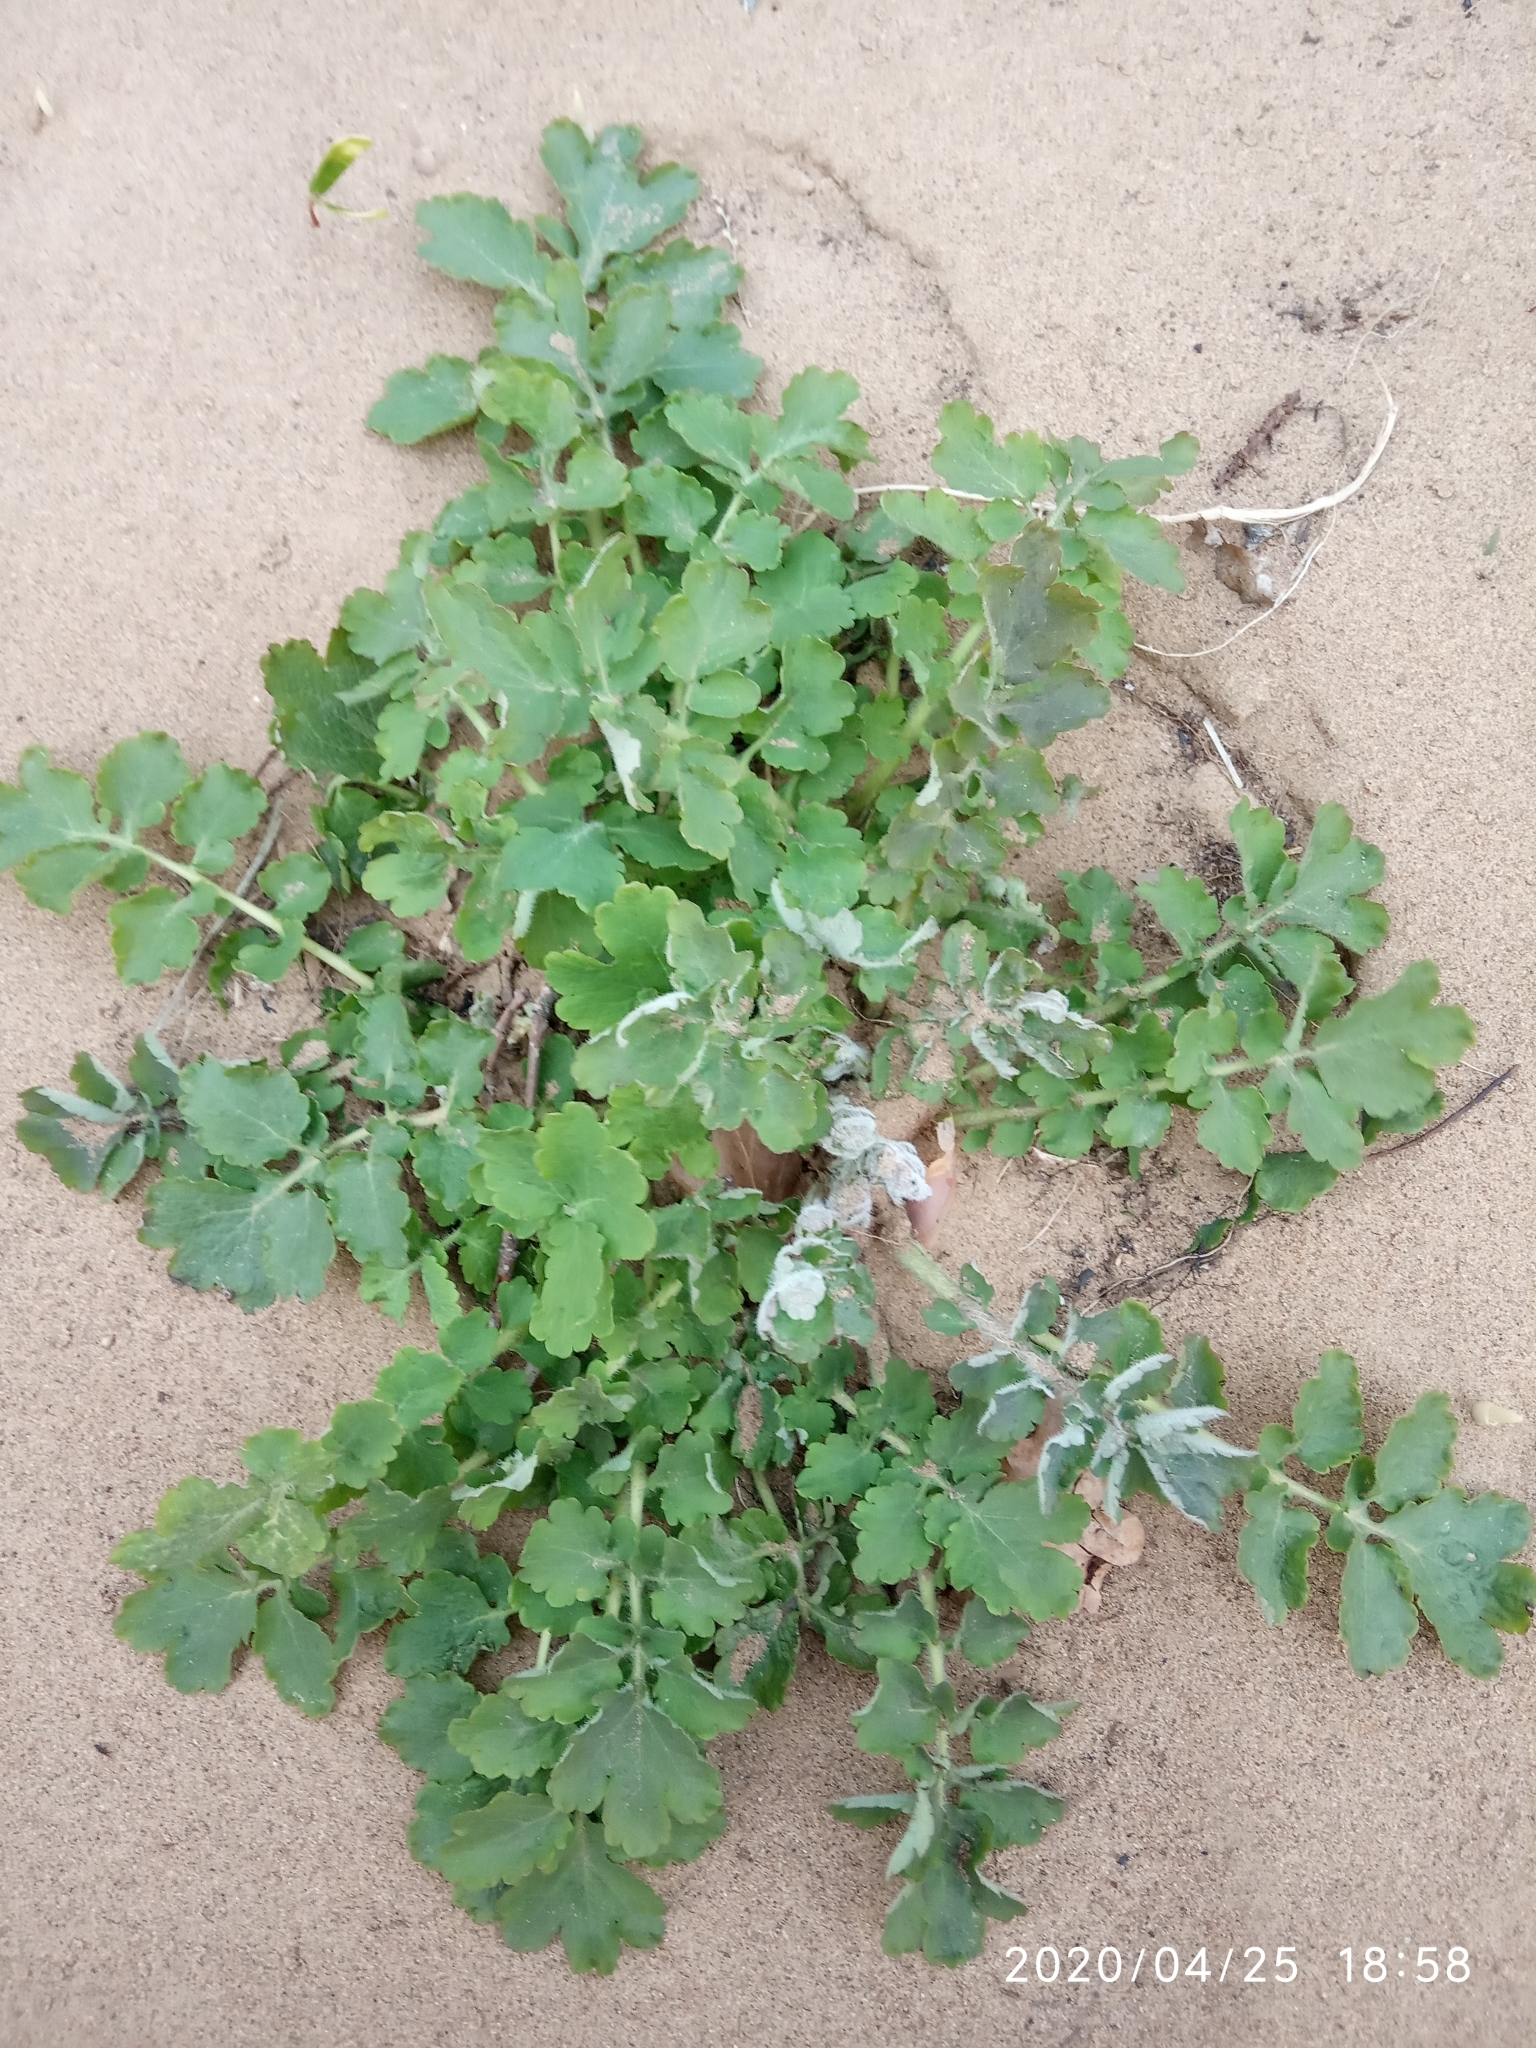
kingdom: Plantae
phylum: Tracheophyta
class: Magnoliopsida
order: Ranunculales
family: Papaveraceae
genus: Chelidonium
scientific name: Chelidonium majus
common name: Greater celandine
